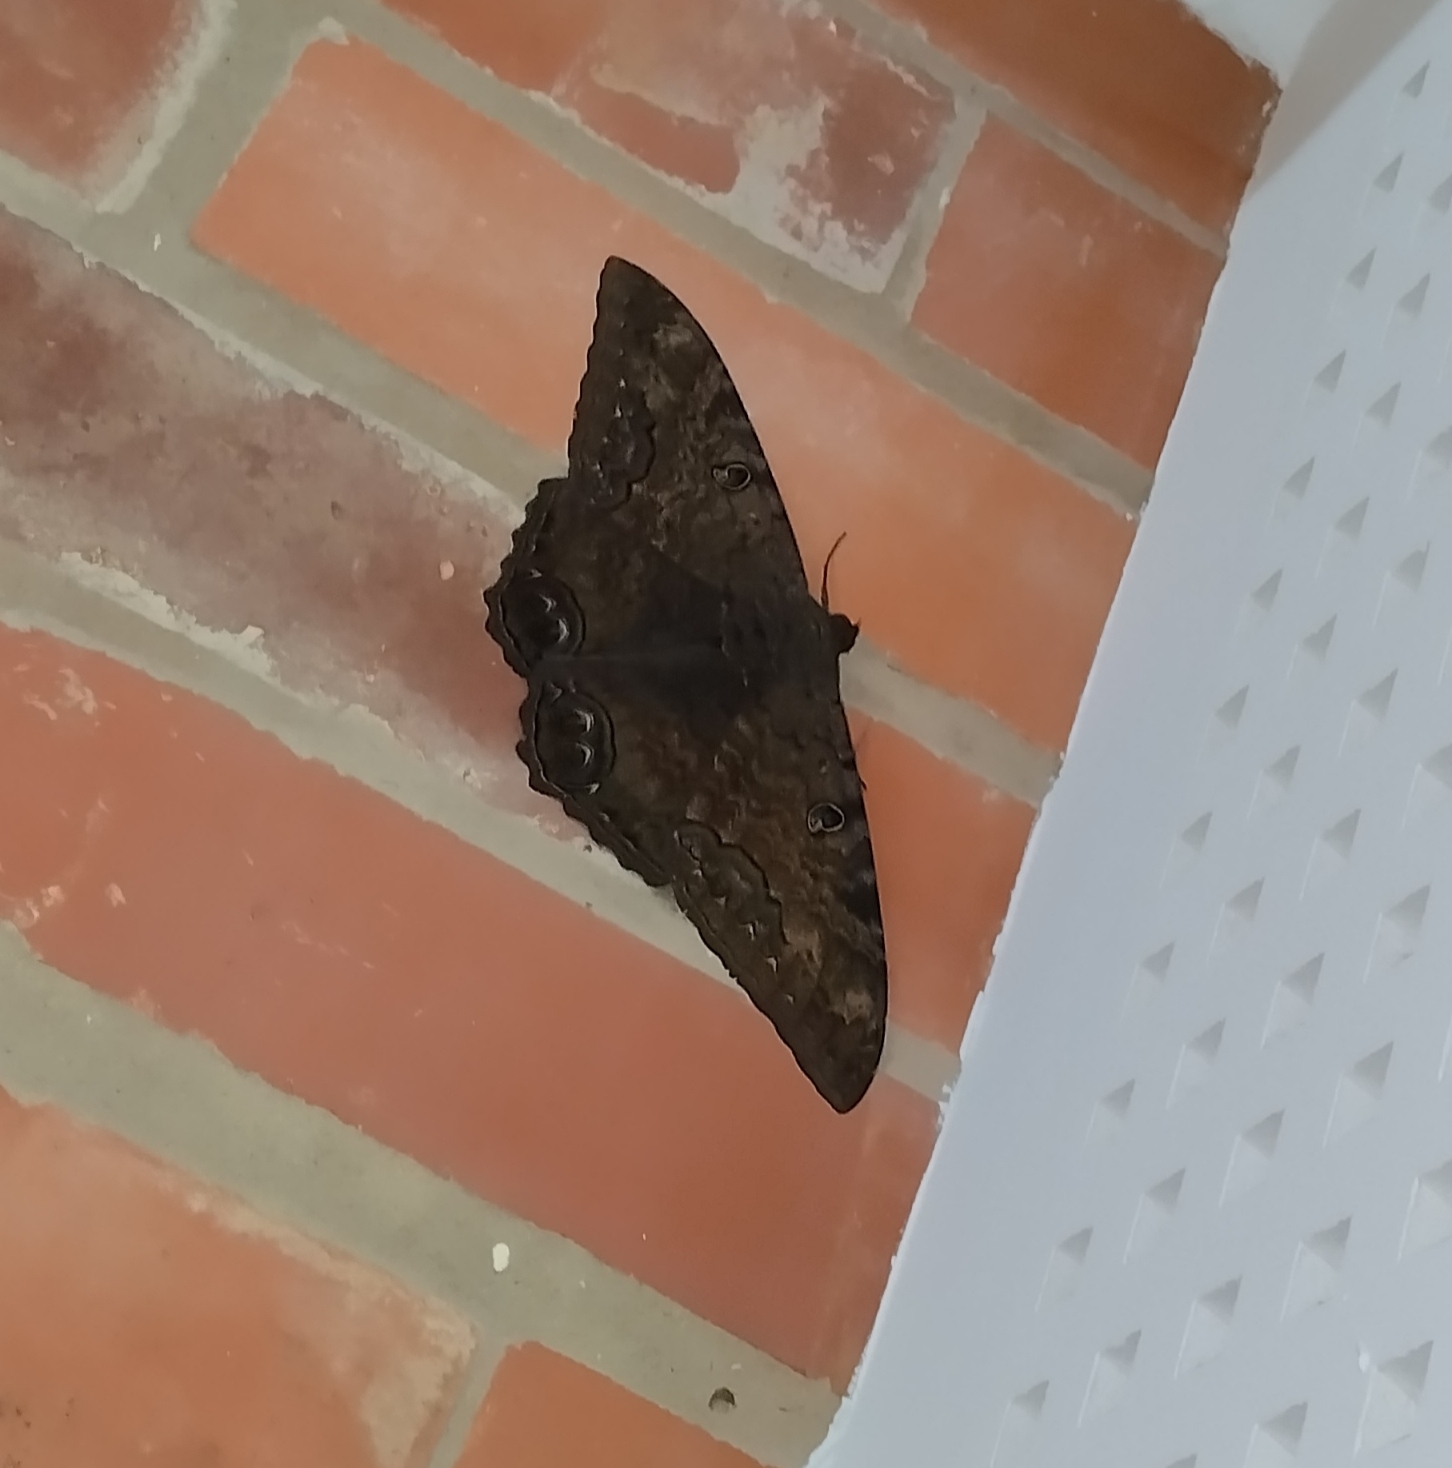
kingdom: Animalia
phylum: Arthropoda
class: Insecta
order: Lepidoptera
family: Erebidae
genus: Ascalapha
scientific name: Ascalapha odorata
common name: Black witch
